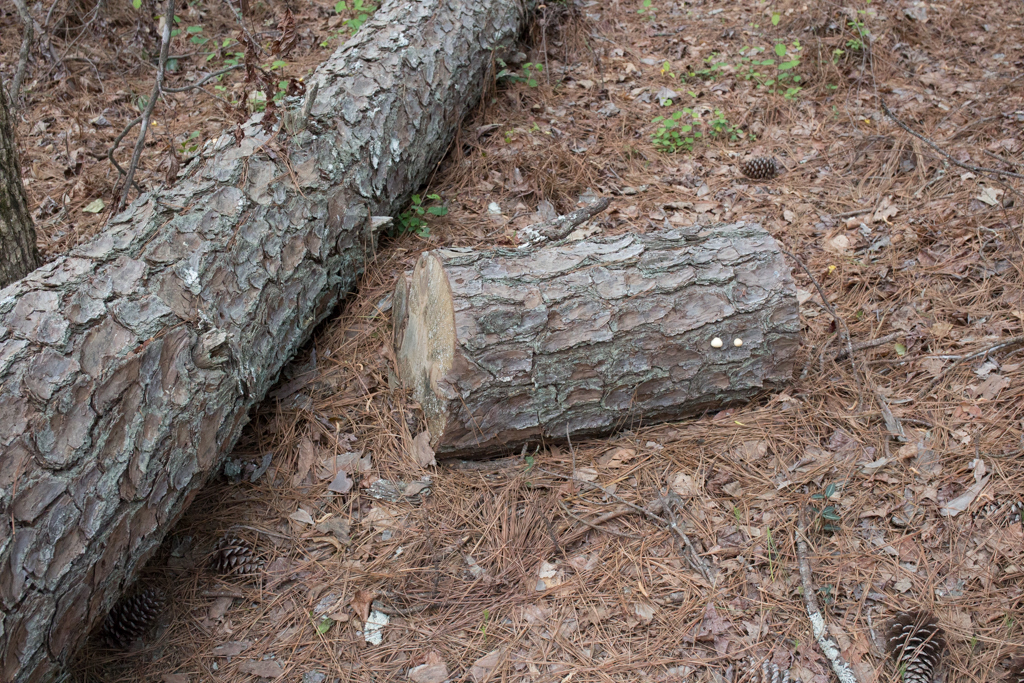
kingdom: Fungi
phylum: Basidiomycota
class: Agaricomycetes
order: Polyporales
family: Polyporaceae
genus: Cryptoporus
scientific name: Cryptoporus volvatus
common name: Veiled polypore
